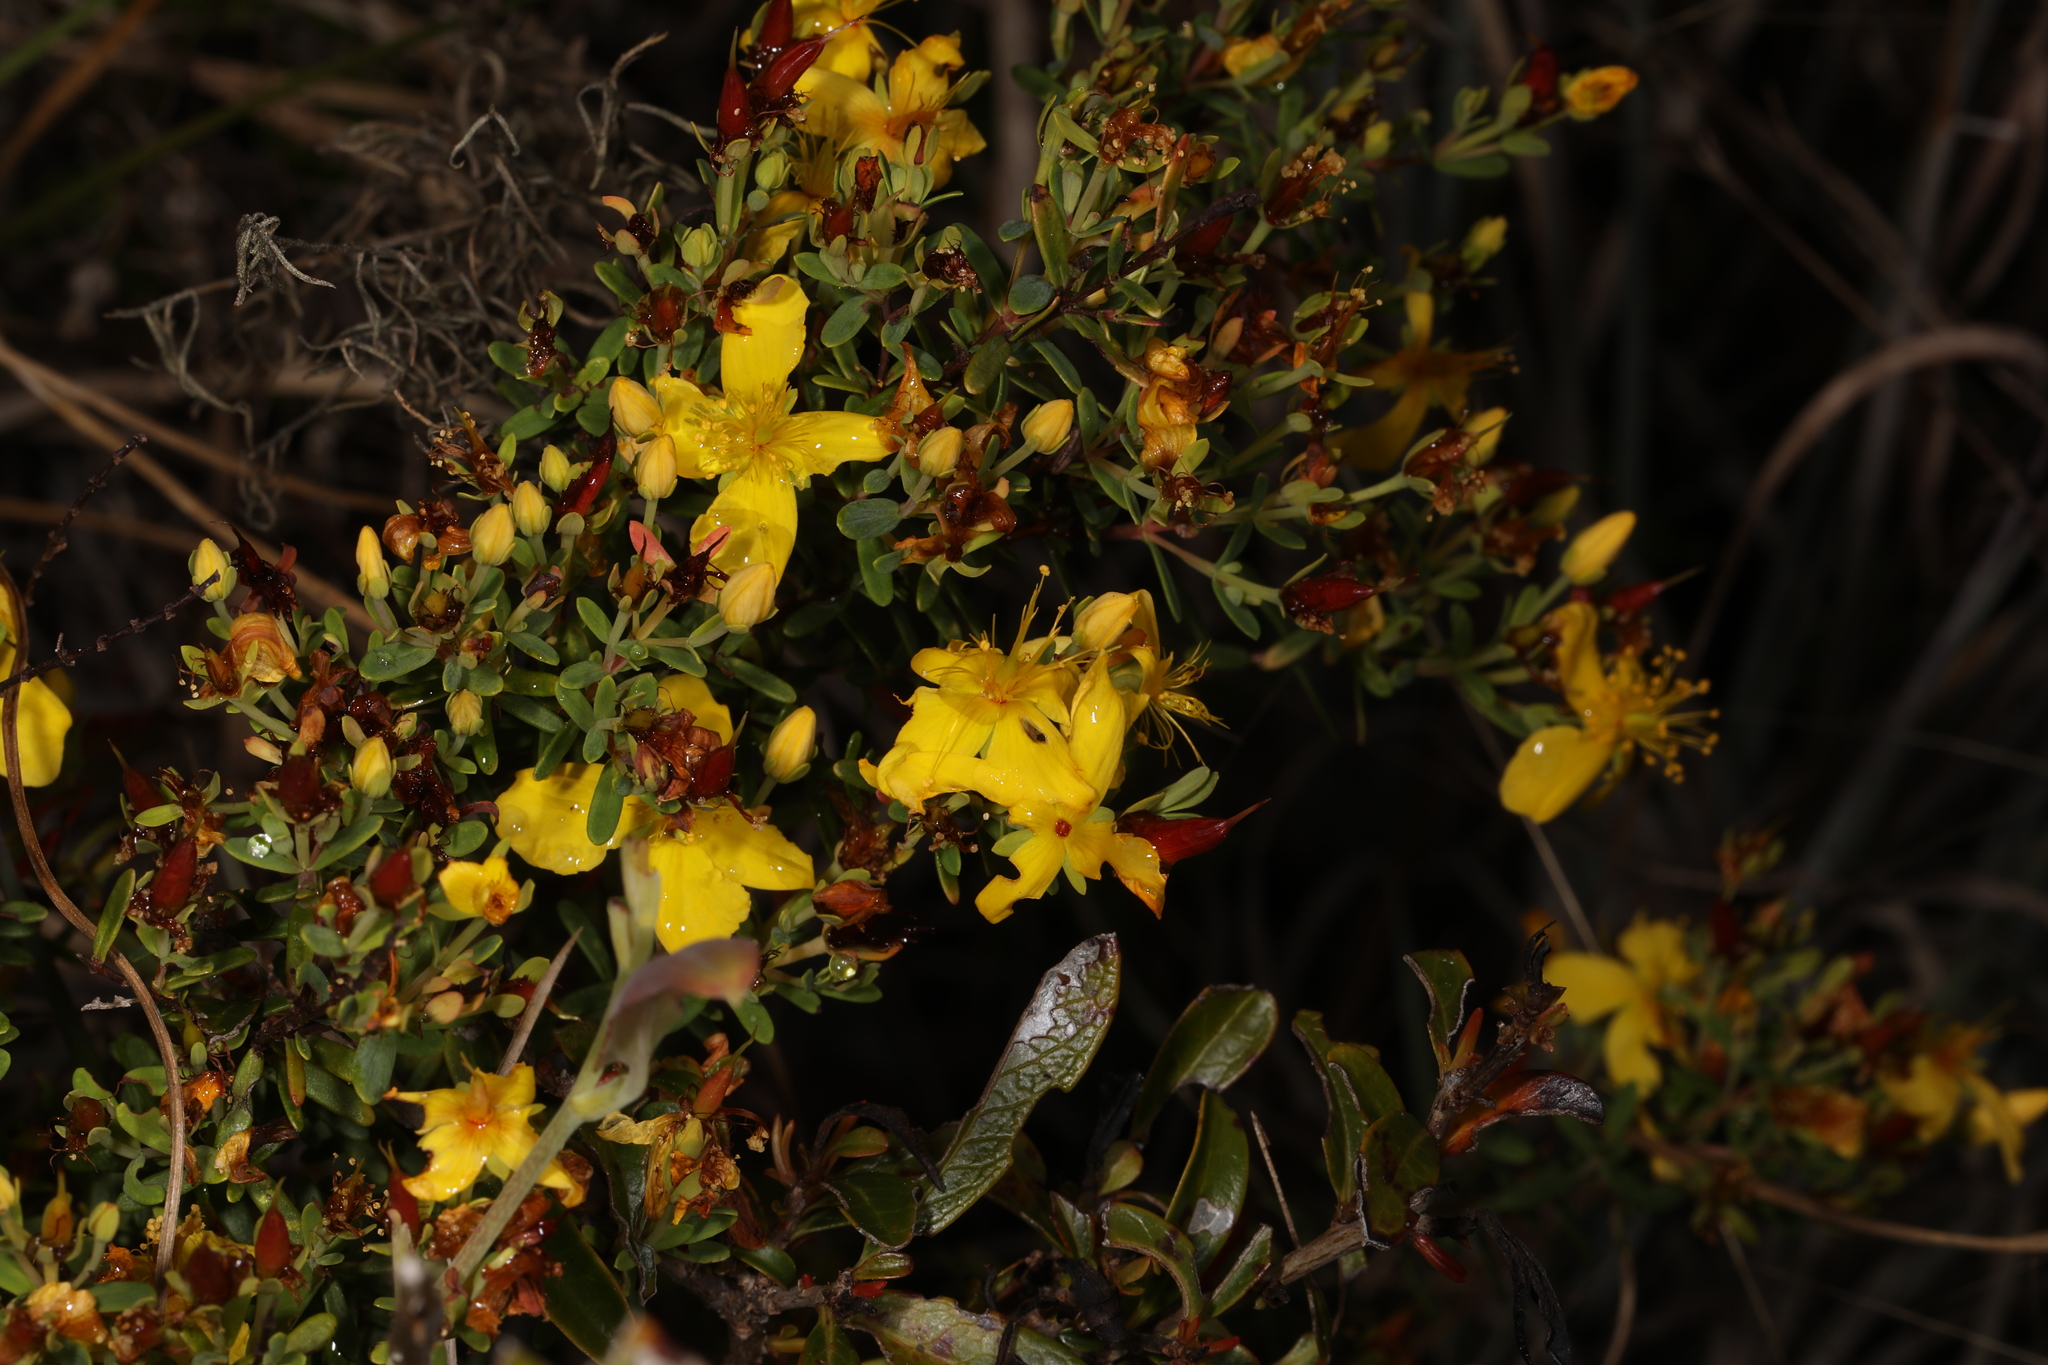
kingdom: Plantae
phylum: Tracheophyta
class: Magnoliopsida
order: Malpighiales
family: Hypericaceae
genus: Hypericum
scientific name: Hypericum microsepalum
